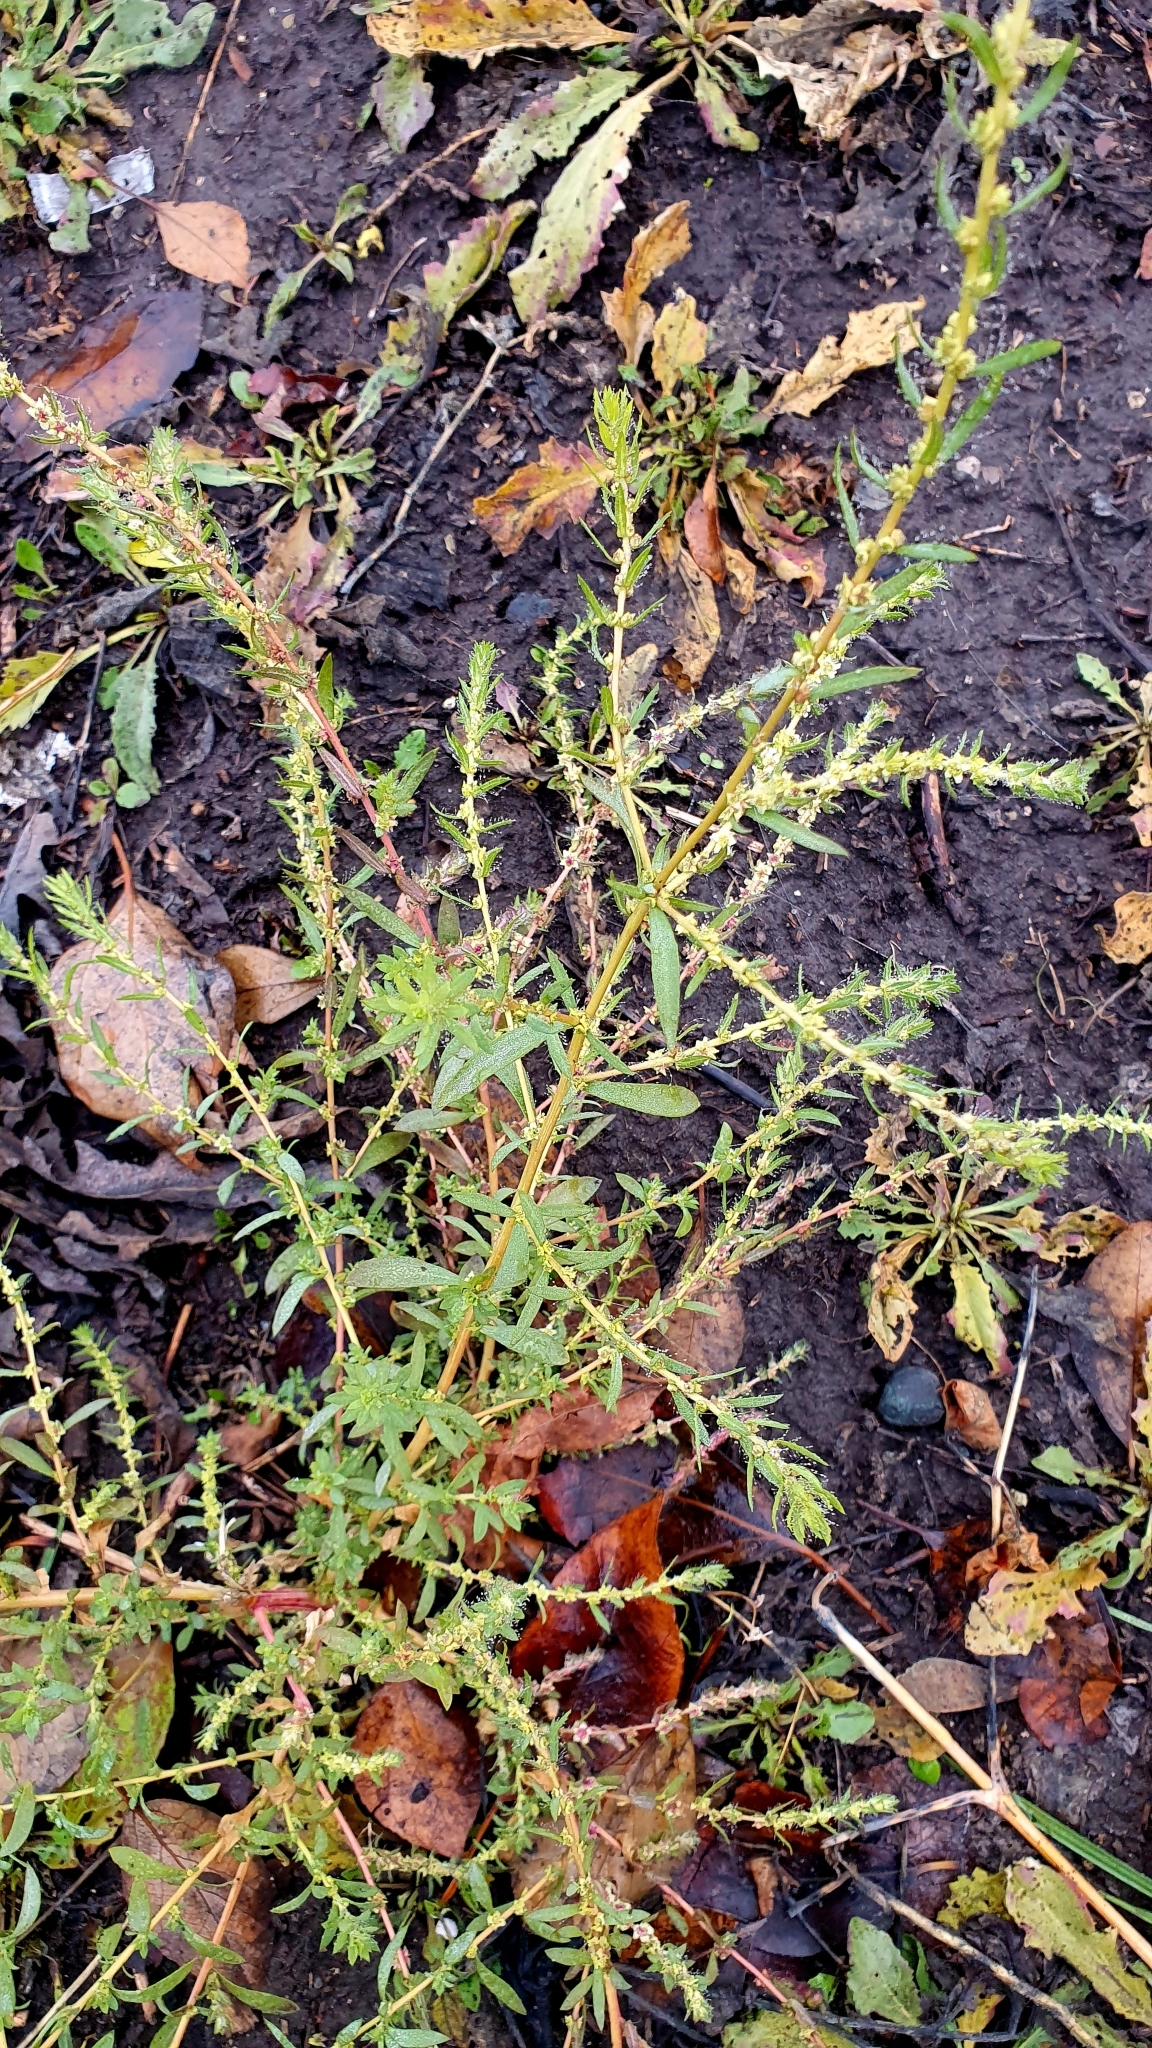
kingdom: Plantae
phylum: Tracheophyta
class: Magnoliopsida
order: Caryophyllales
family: Amaranthaceae
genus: Bassia
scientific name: Bassia scoparia
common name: Belvedere
